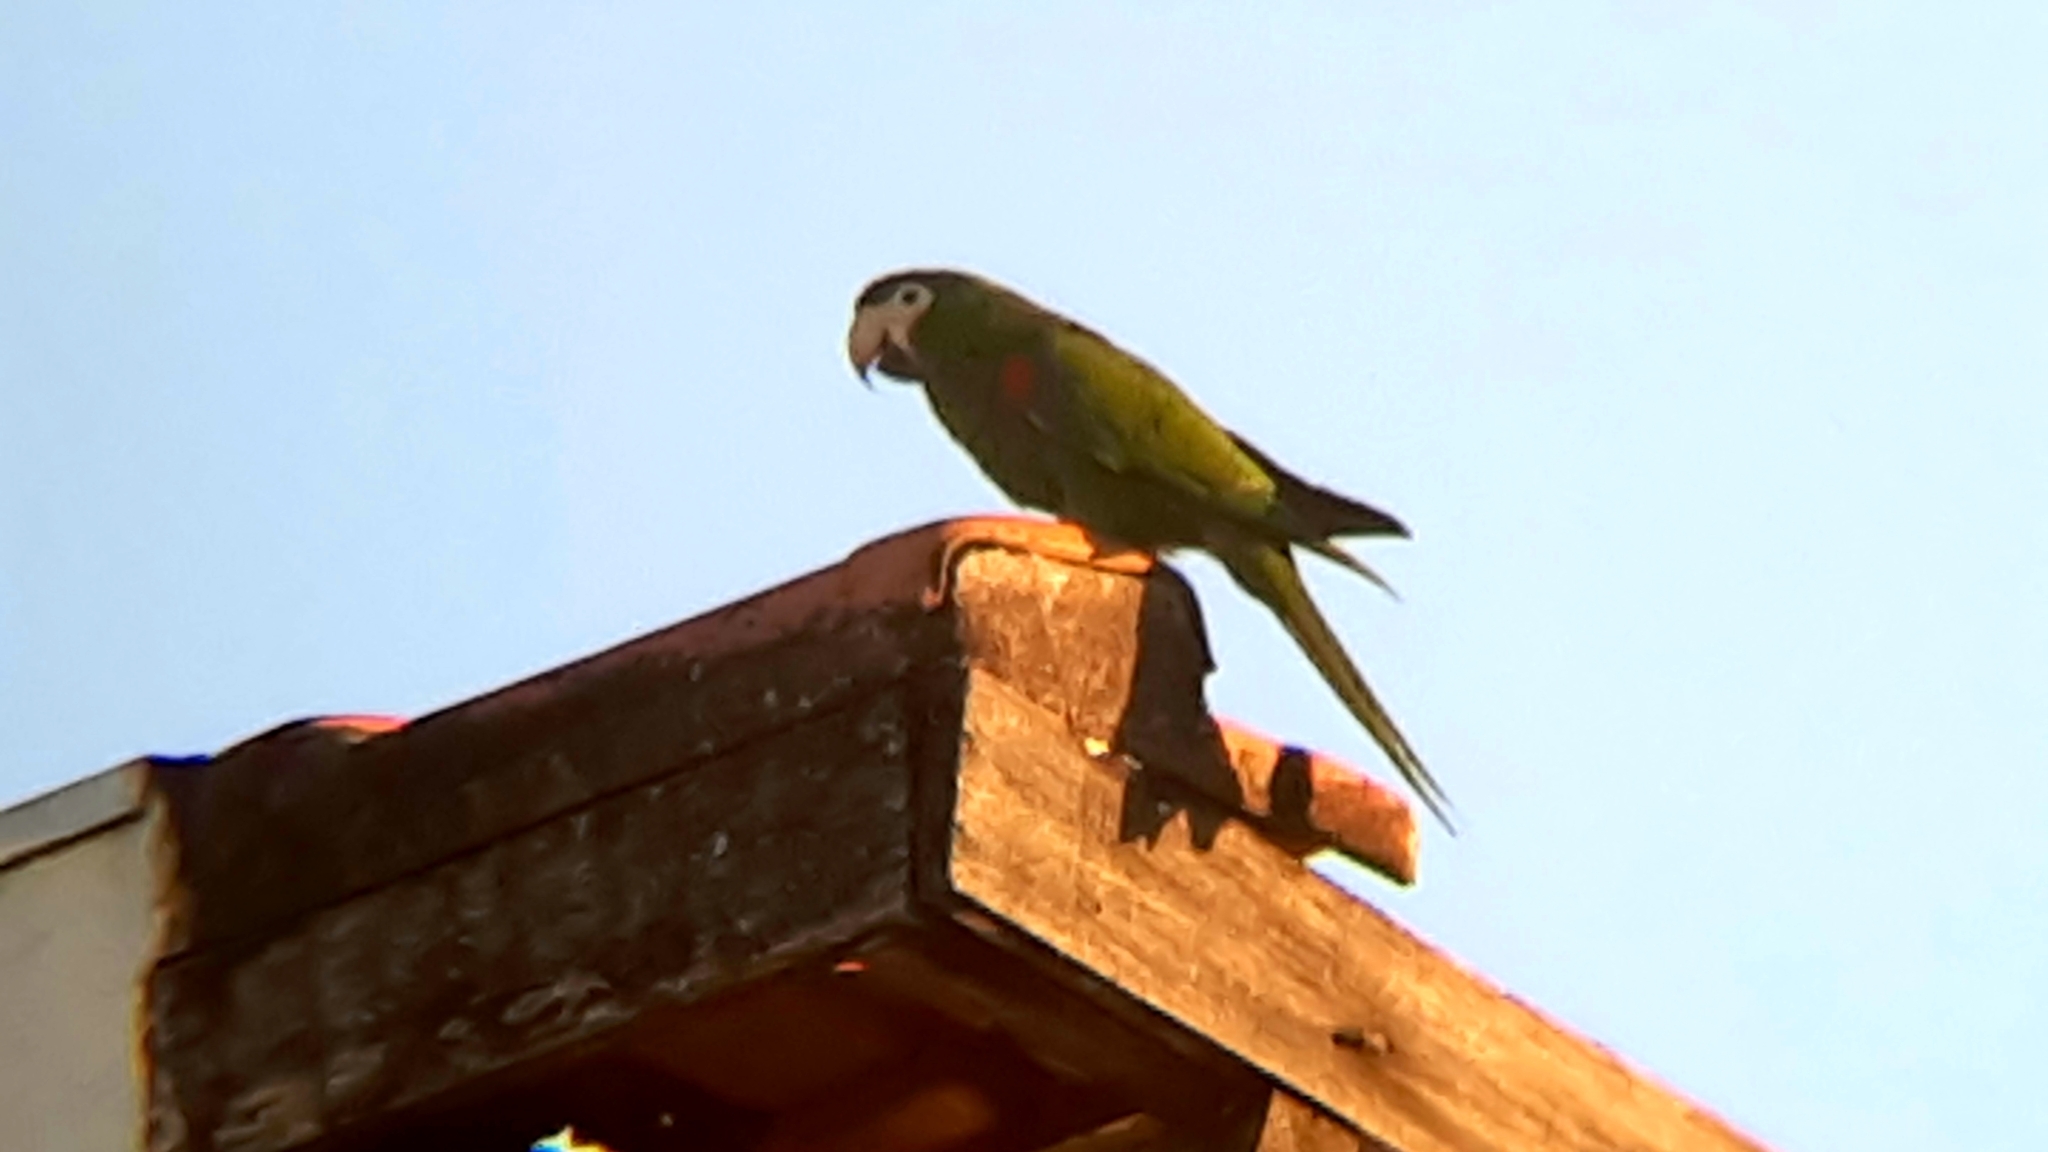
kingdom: Animalia
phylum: Chordata
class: Aves
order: Psittaciformes
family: Psittacidae
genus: Diopsittaca
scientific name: Diopsittaca nobilis
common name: Red-shouldered macaw
